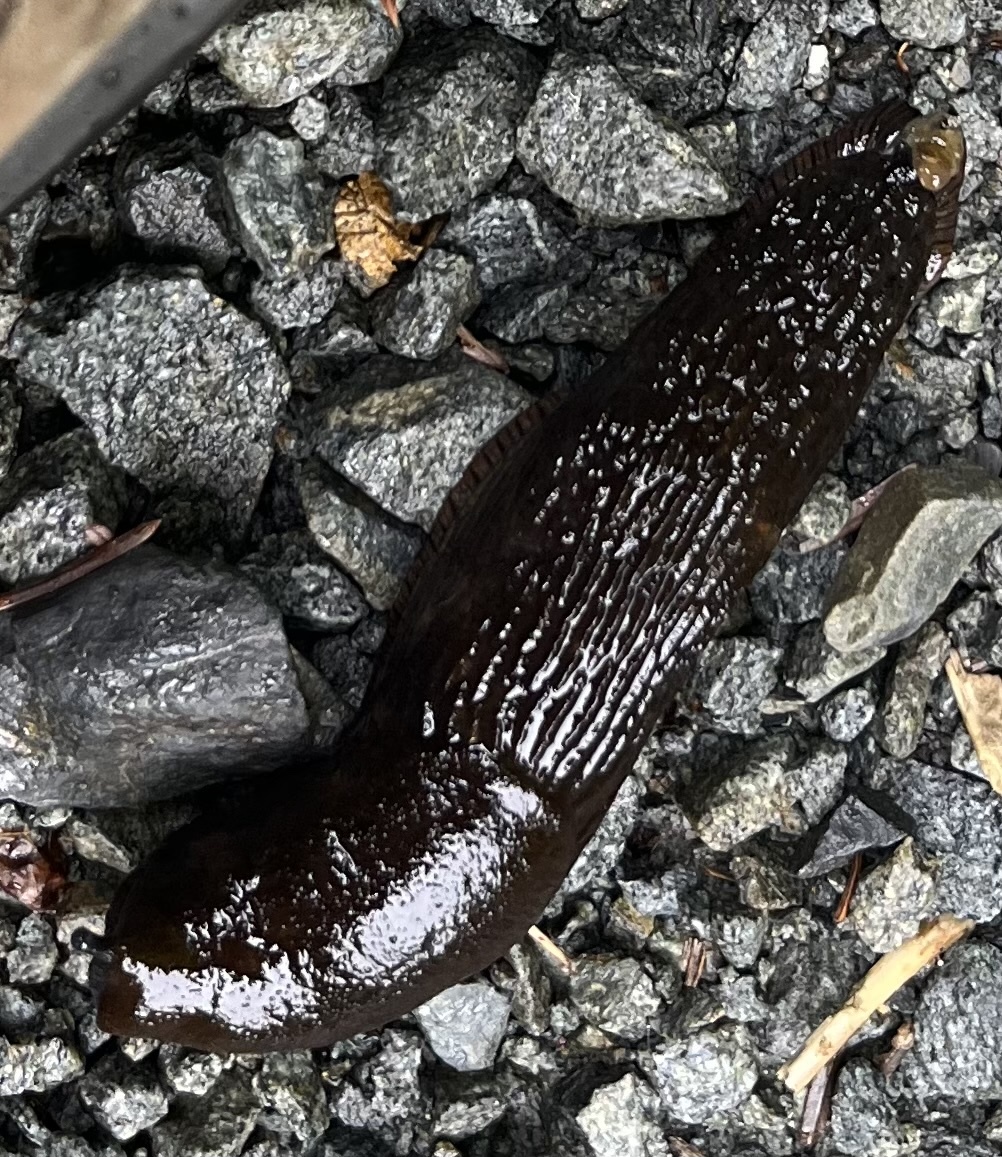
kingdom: Animalia
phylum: Mollusca
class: Gastropoda
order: Stylommatophora
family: Arionidae
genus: Arion
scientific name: Arion
